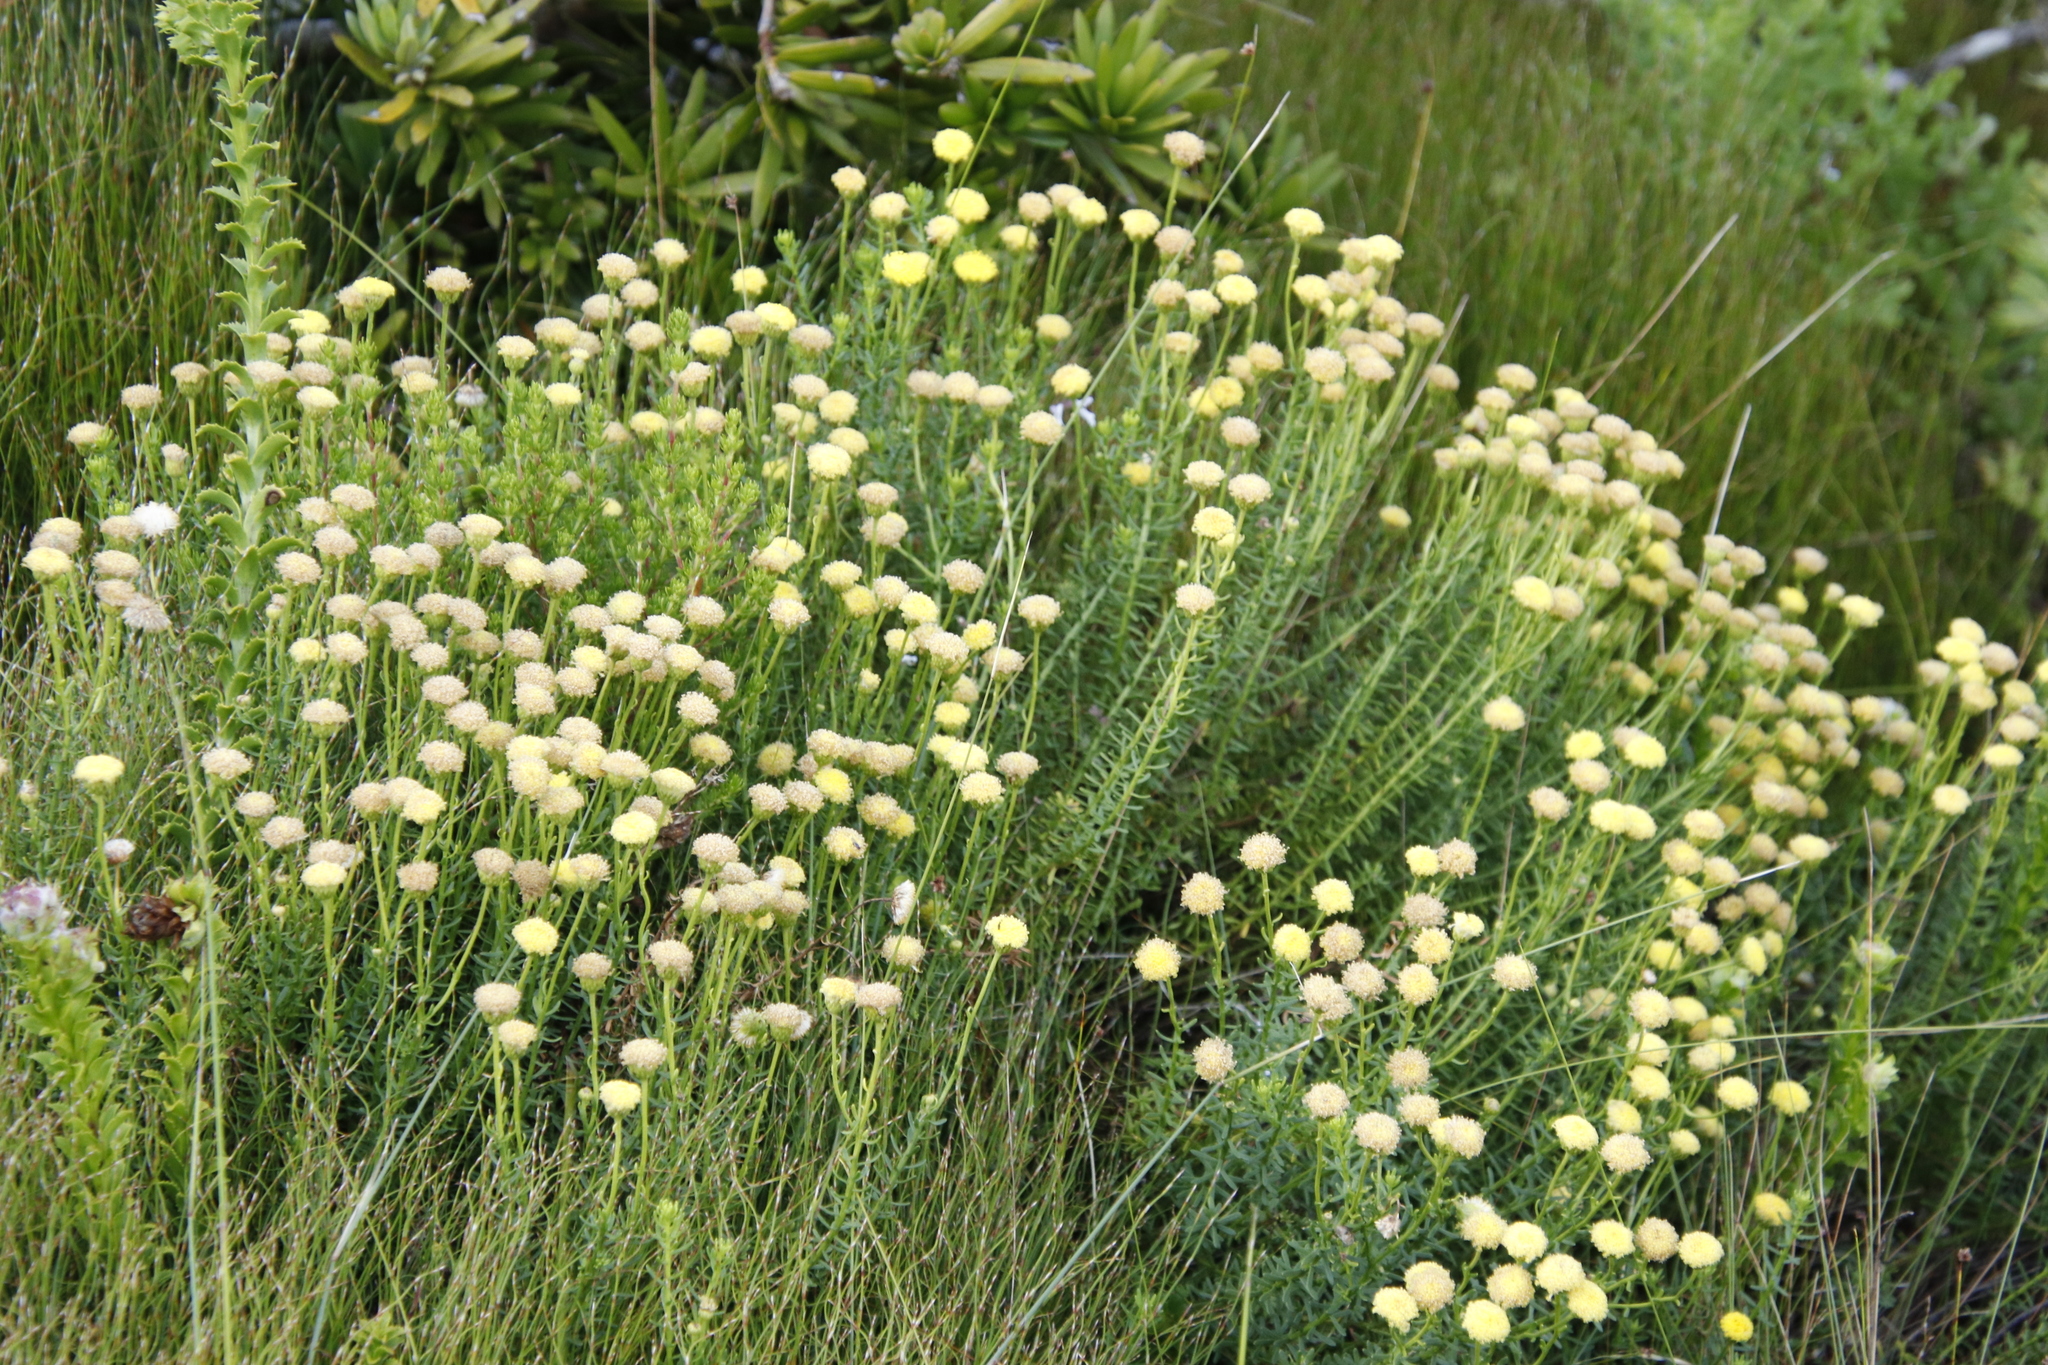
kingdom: Plantae
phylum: Tracheophyta
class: Magnoliopsida
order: Asterales
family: Asteraceae
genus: Chrysocoma
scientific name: Chrysocoma cernua
